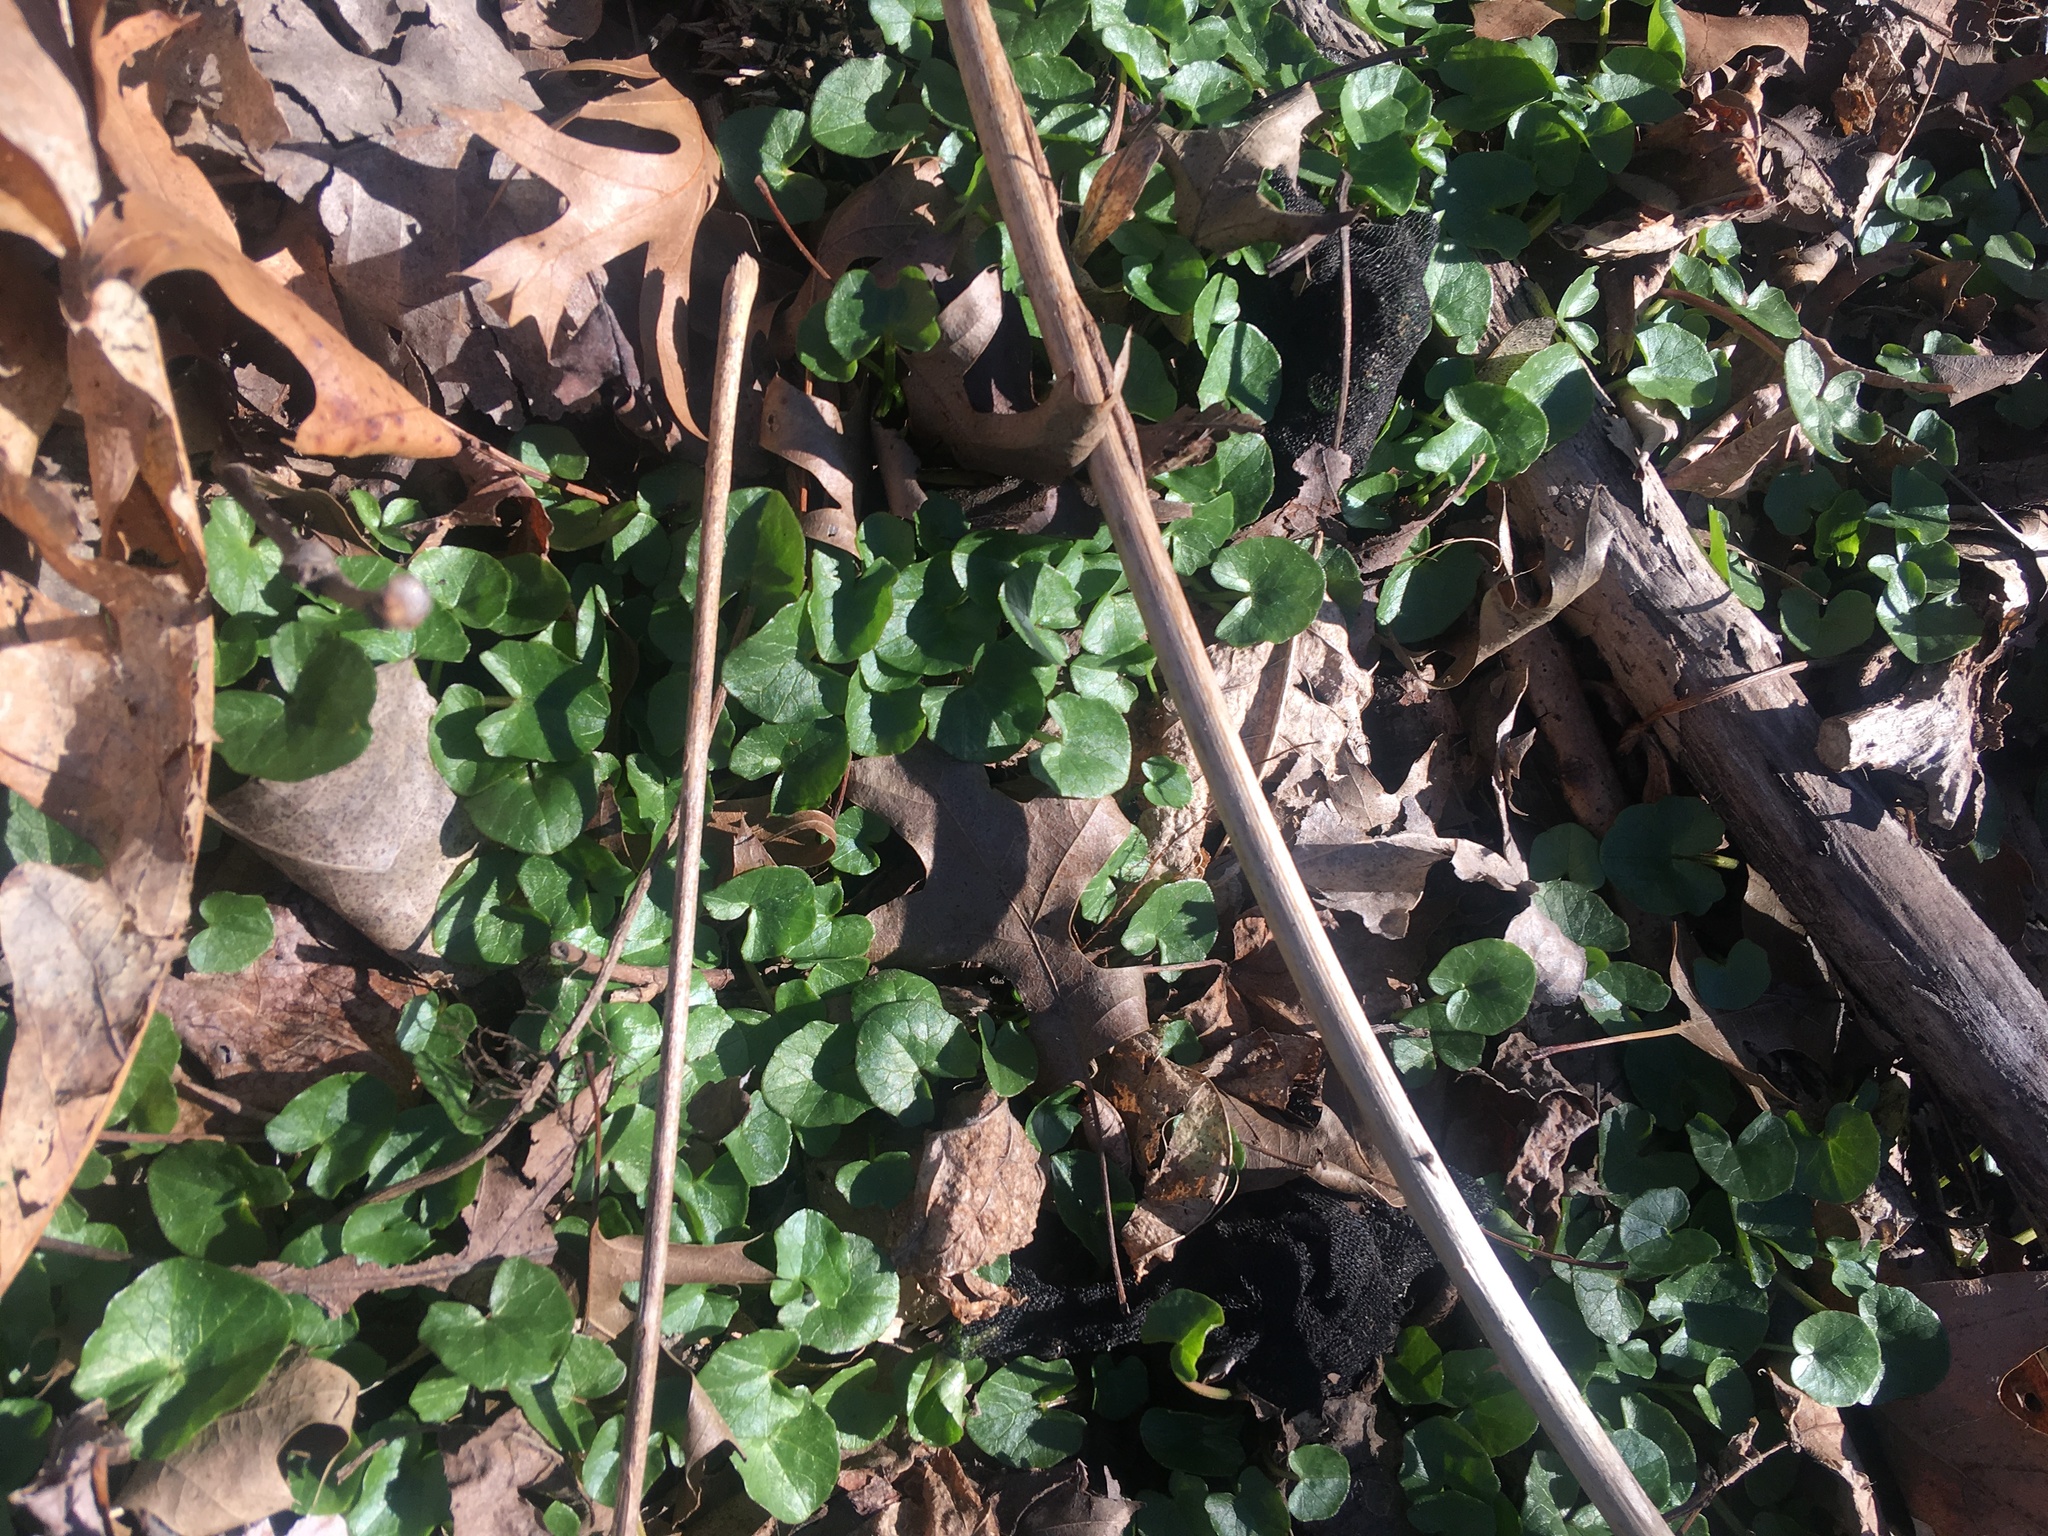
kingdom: Plantae
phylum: Tracheophyta
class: Magnoliopsida
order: Ranunculales
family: Ranunculaceae
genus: Ficaria
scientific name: Ficaria verna
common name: Lesser celandine
